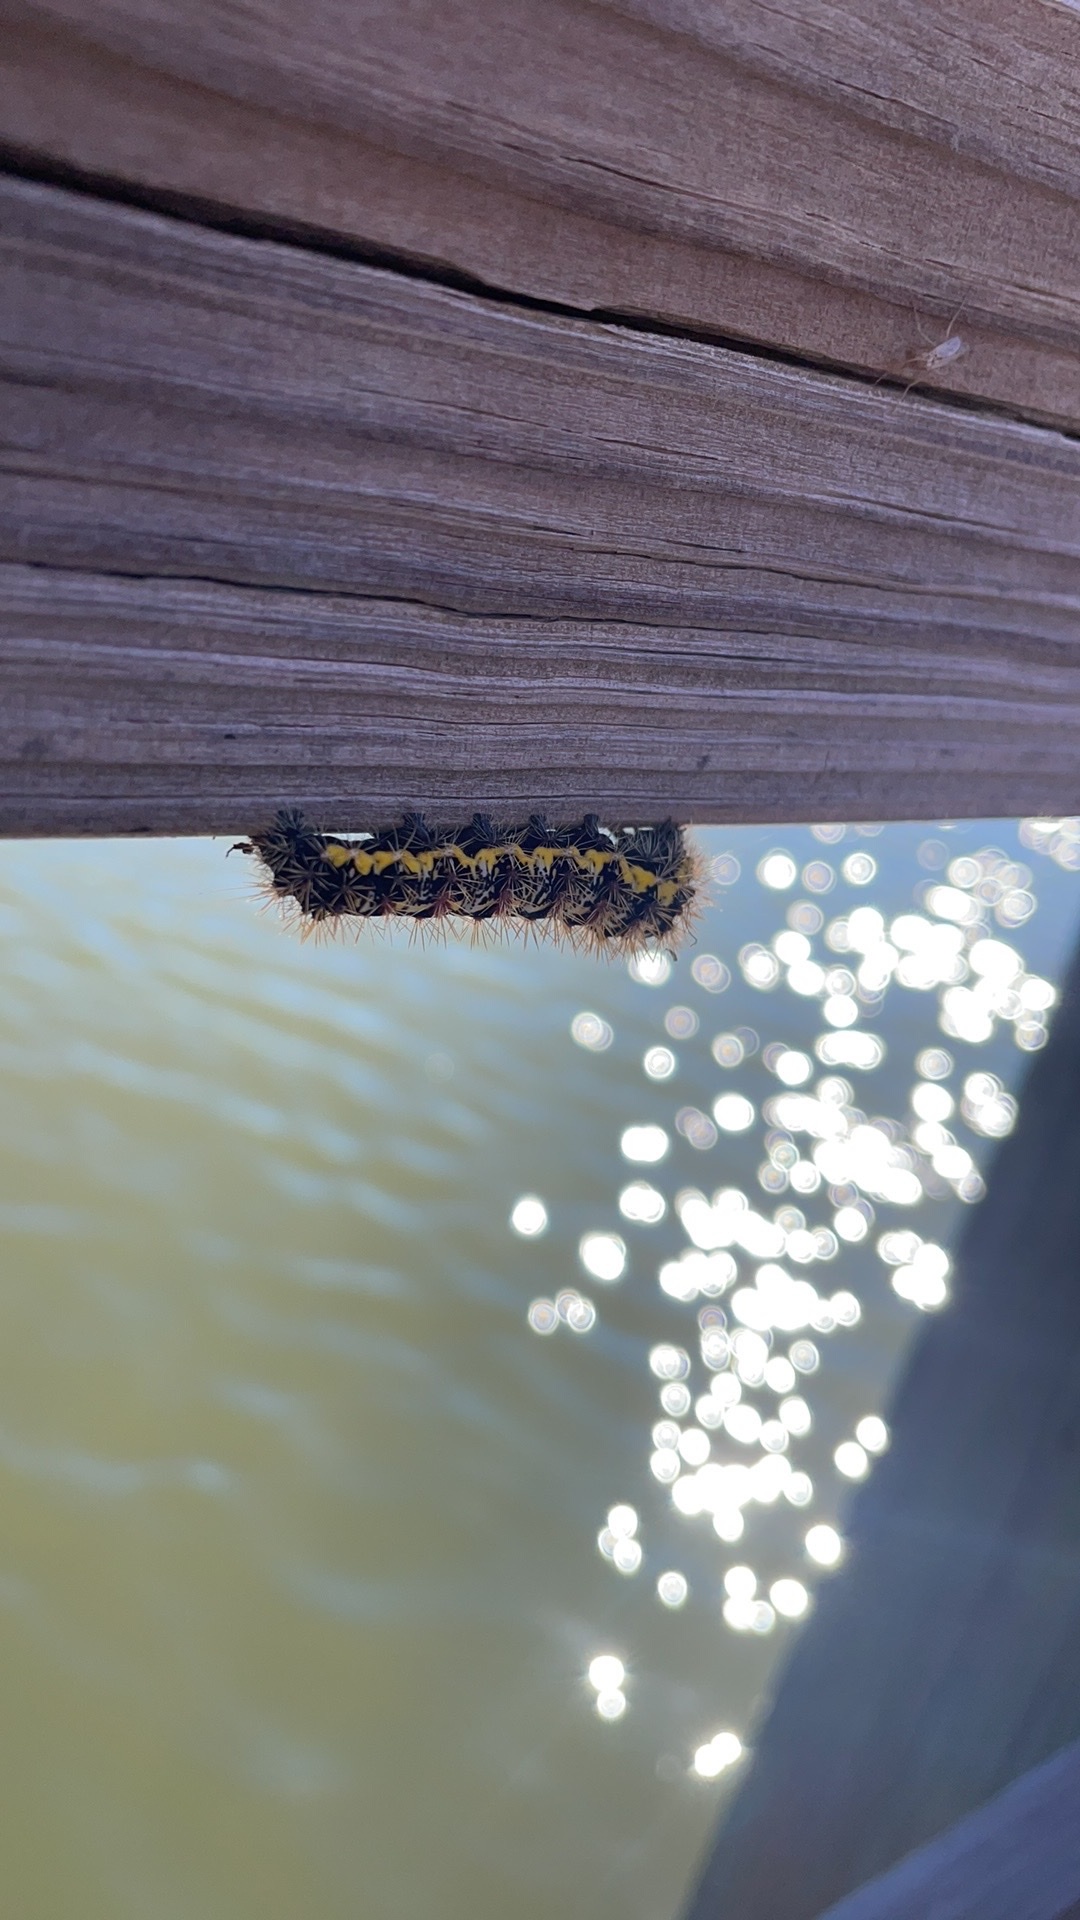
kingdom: Animalia
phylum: Arthropoda
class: Insecta
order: Lepidoptera
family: Noctuidae
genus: Acronicta
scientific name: Acronicta oblinita
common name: Smeared dagger
